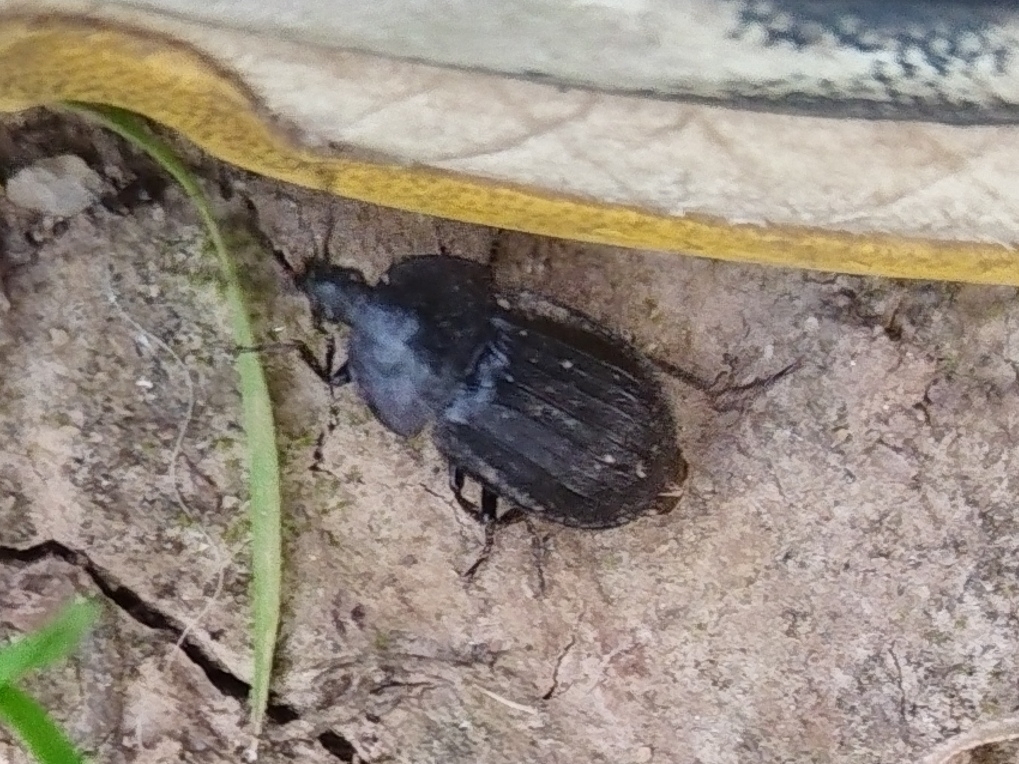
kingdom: Animalia
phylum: Arthropoda
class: Insecta
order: Coleoptera
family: Staphylinidae
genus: Silpha
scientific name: Silpha atrata
